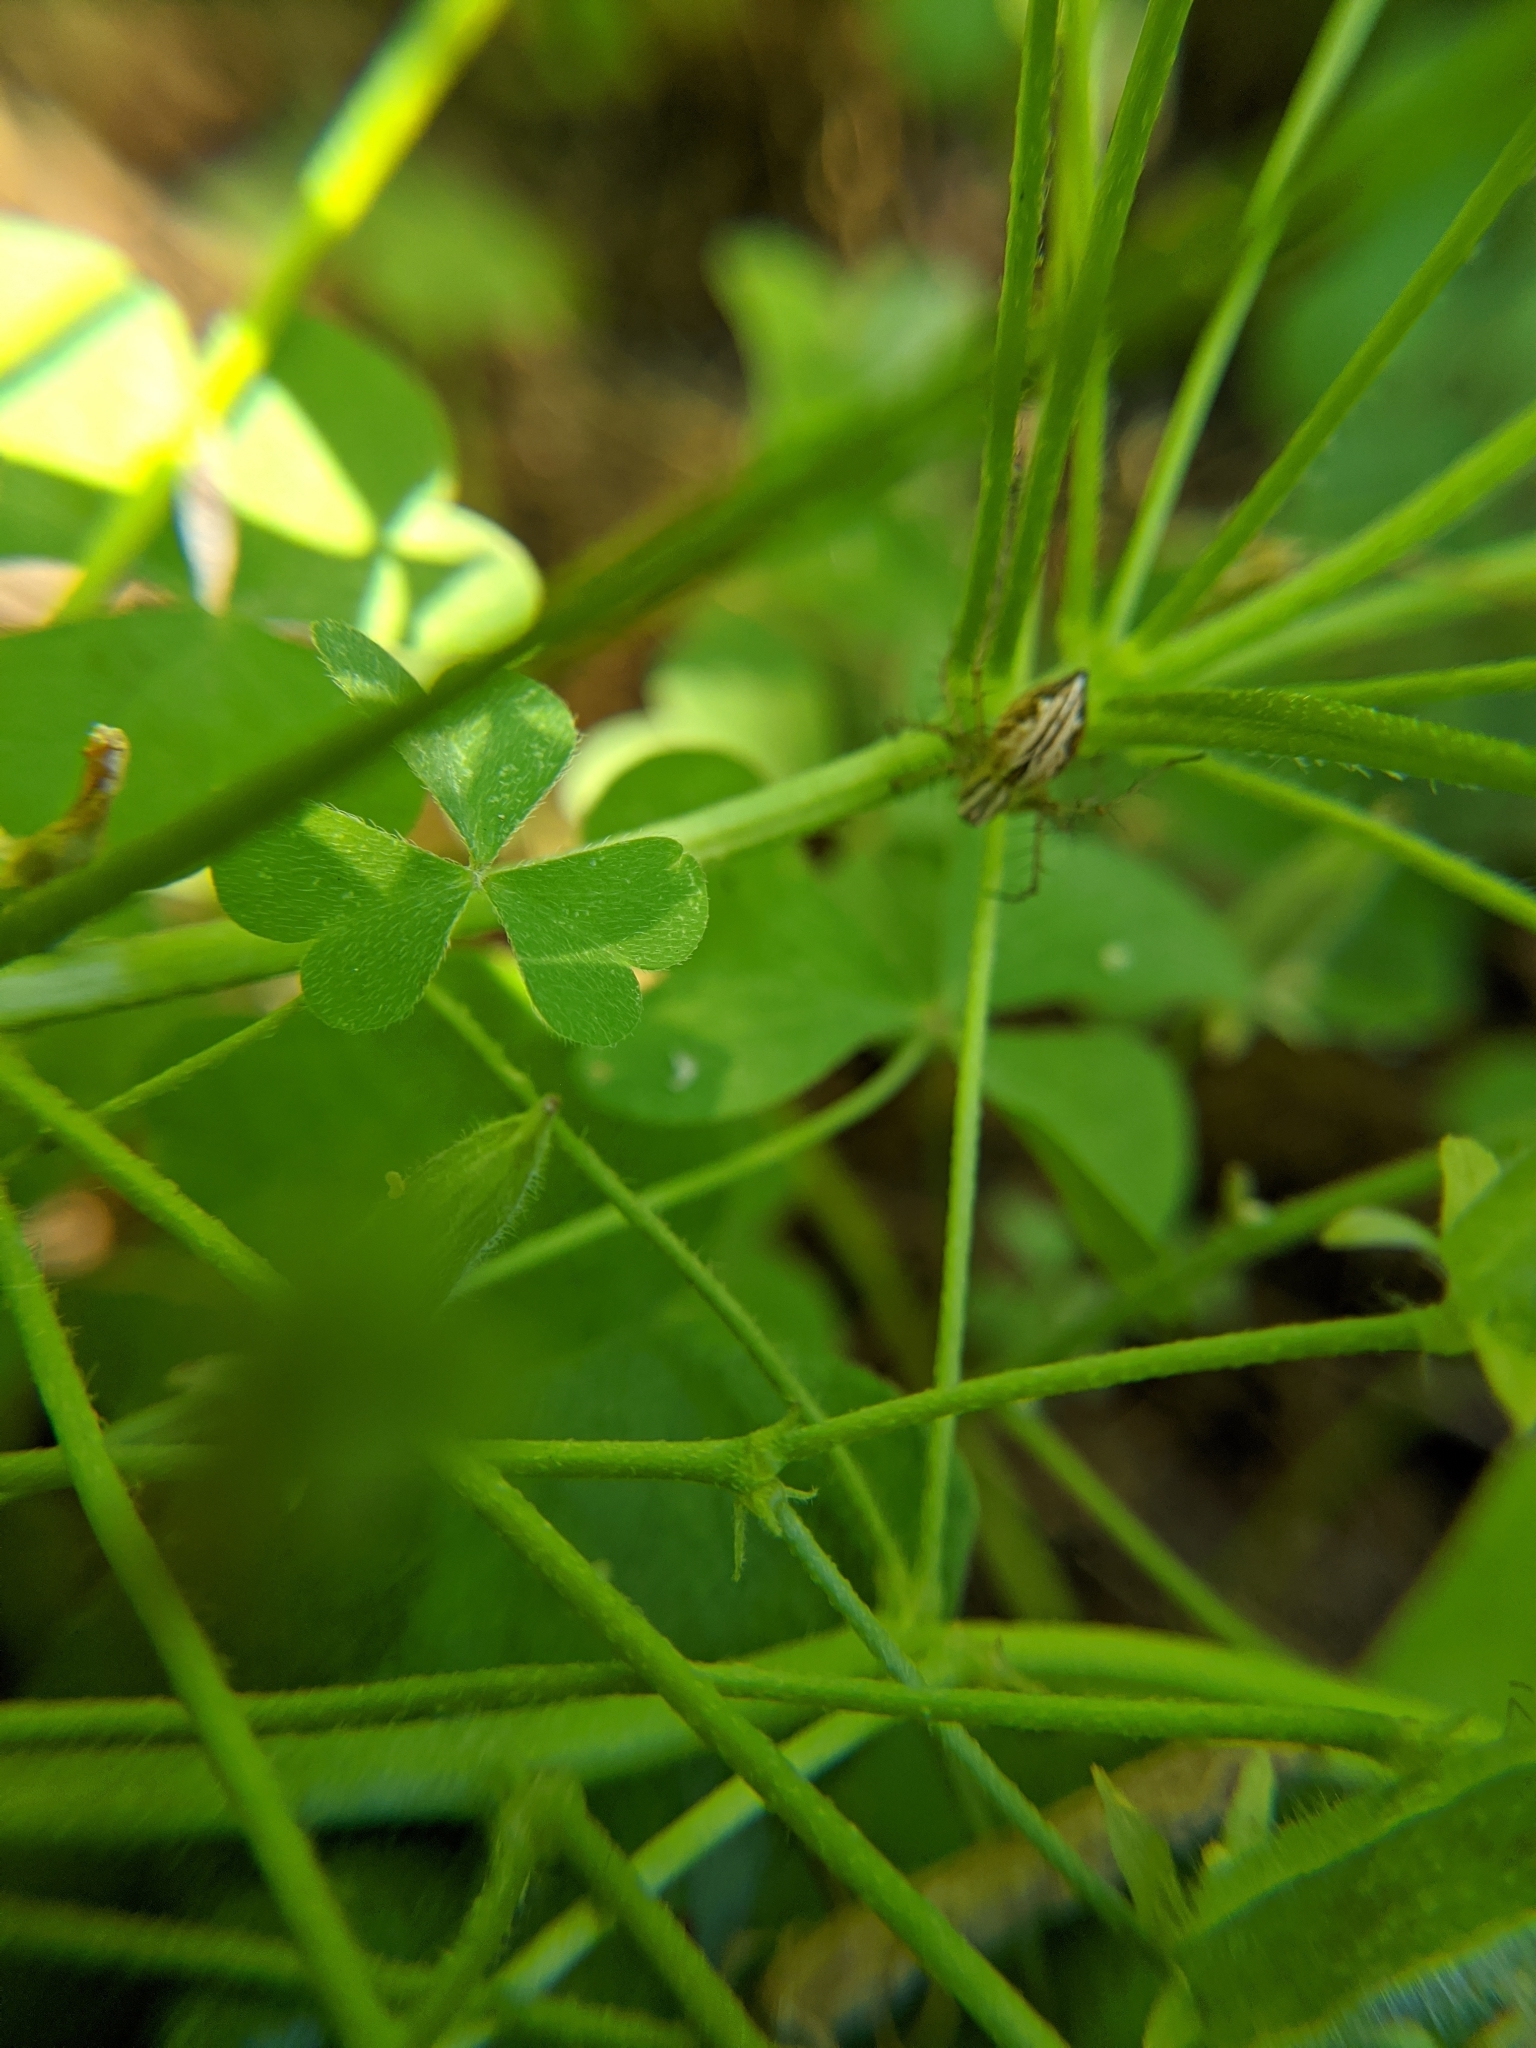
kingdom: Animalia
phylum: Arthropoda
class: Arachnida
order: Araneae
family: Oxyopidae
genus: Oxyopes
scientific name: Oxyopes salticus
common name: Lynx spiders
